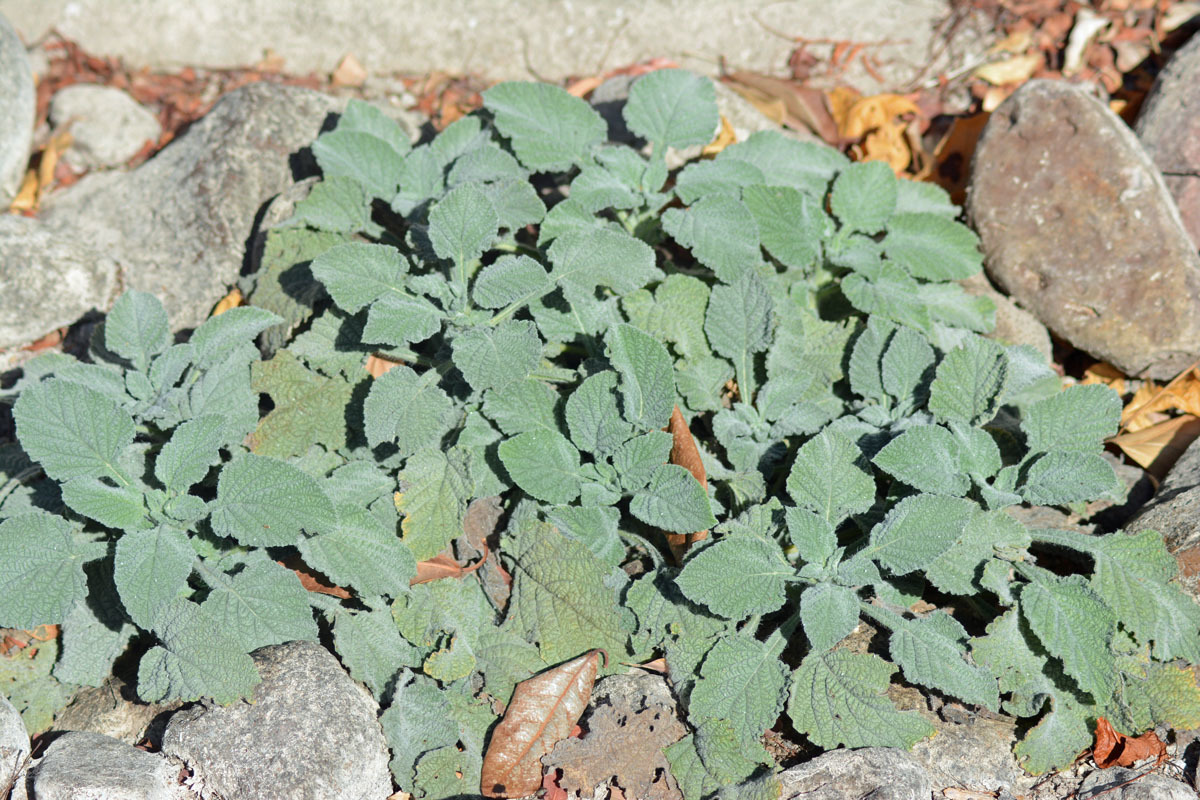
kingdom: Plantae
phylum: Tracheophyta
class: Magnoliopsida
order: Boraginales
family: Heliotropiaceae
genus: Heliotropium
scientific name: Heliotropium indicum
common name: Indian heliotrope
